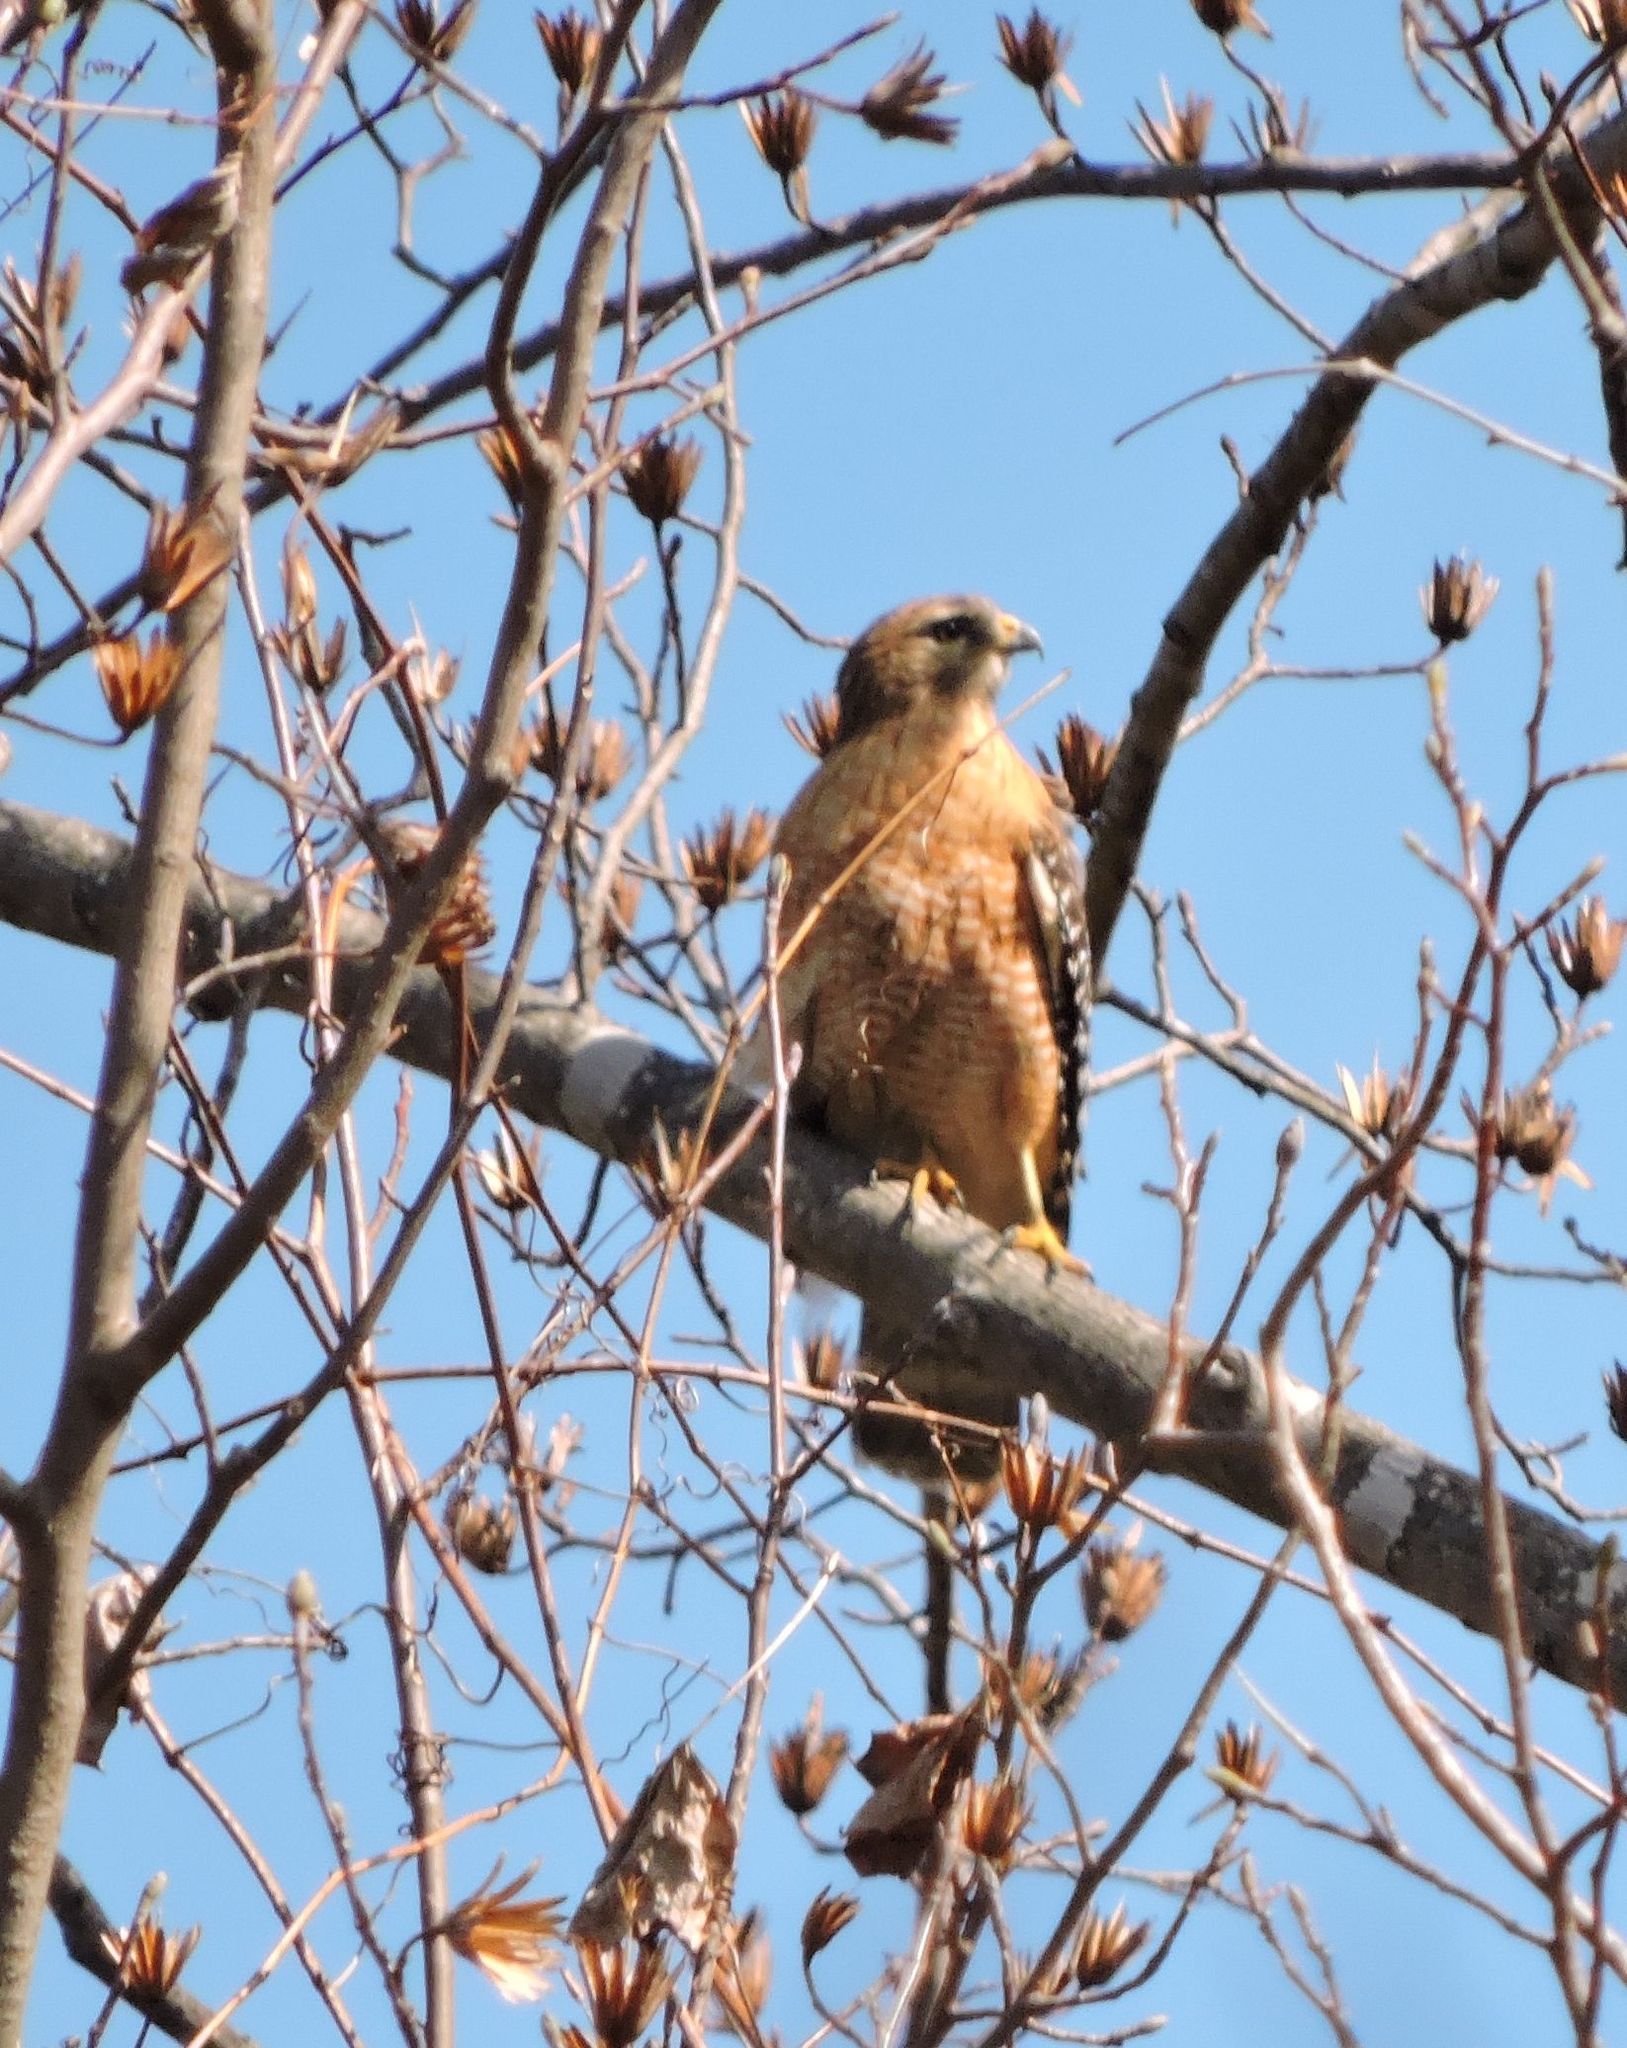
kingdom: Animalia
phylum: Chordata
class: Aves
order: Accipitriformes
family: Accipitridae
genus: Buteo
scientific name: Buteo lineatus
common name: Red-shouldered hawk
